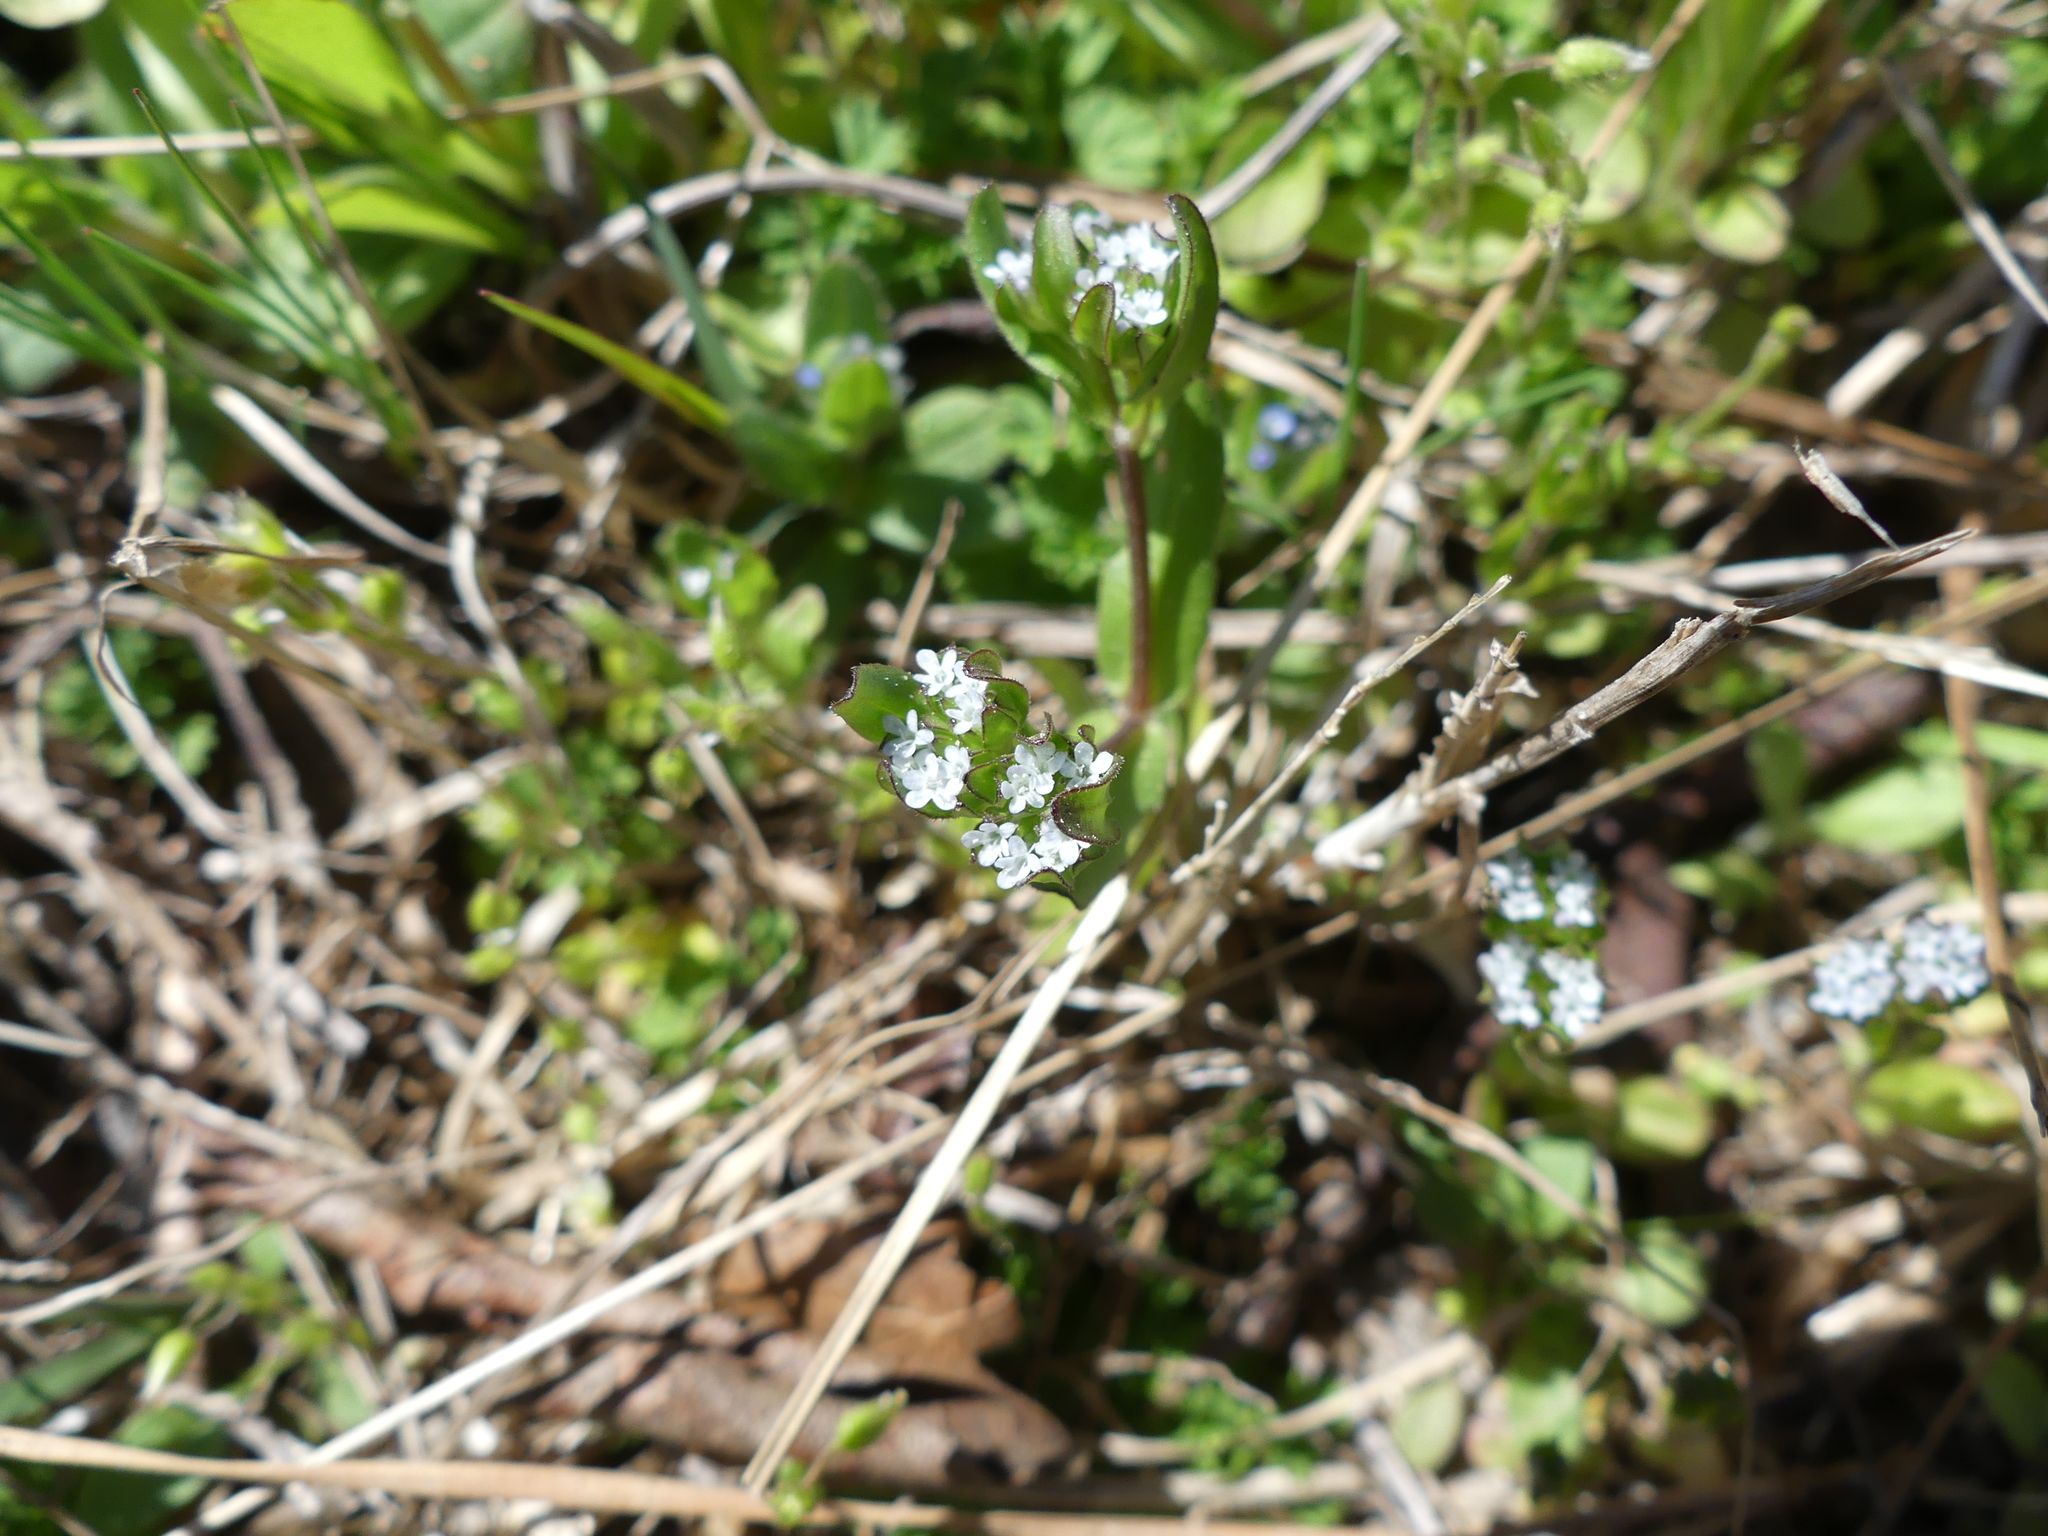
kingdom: Plantae
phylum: Tracheophyta
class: Magnoliopsida
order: Dipsacales
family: Caprifoliaceae
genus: Valerianella
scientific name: Valerianella locusta
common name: Common cornsalad
